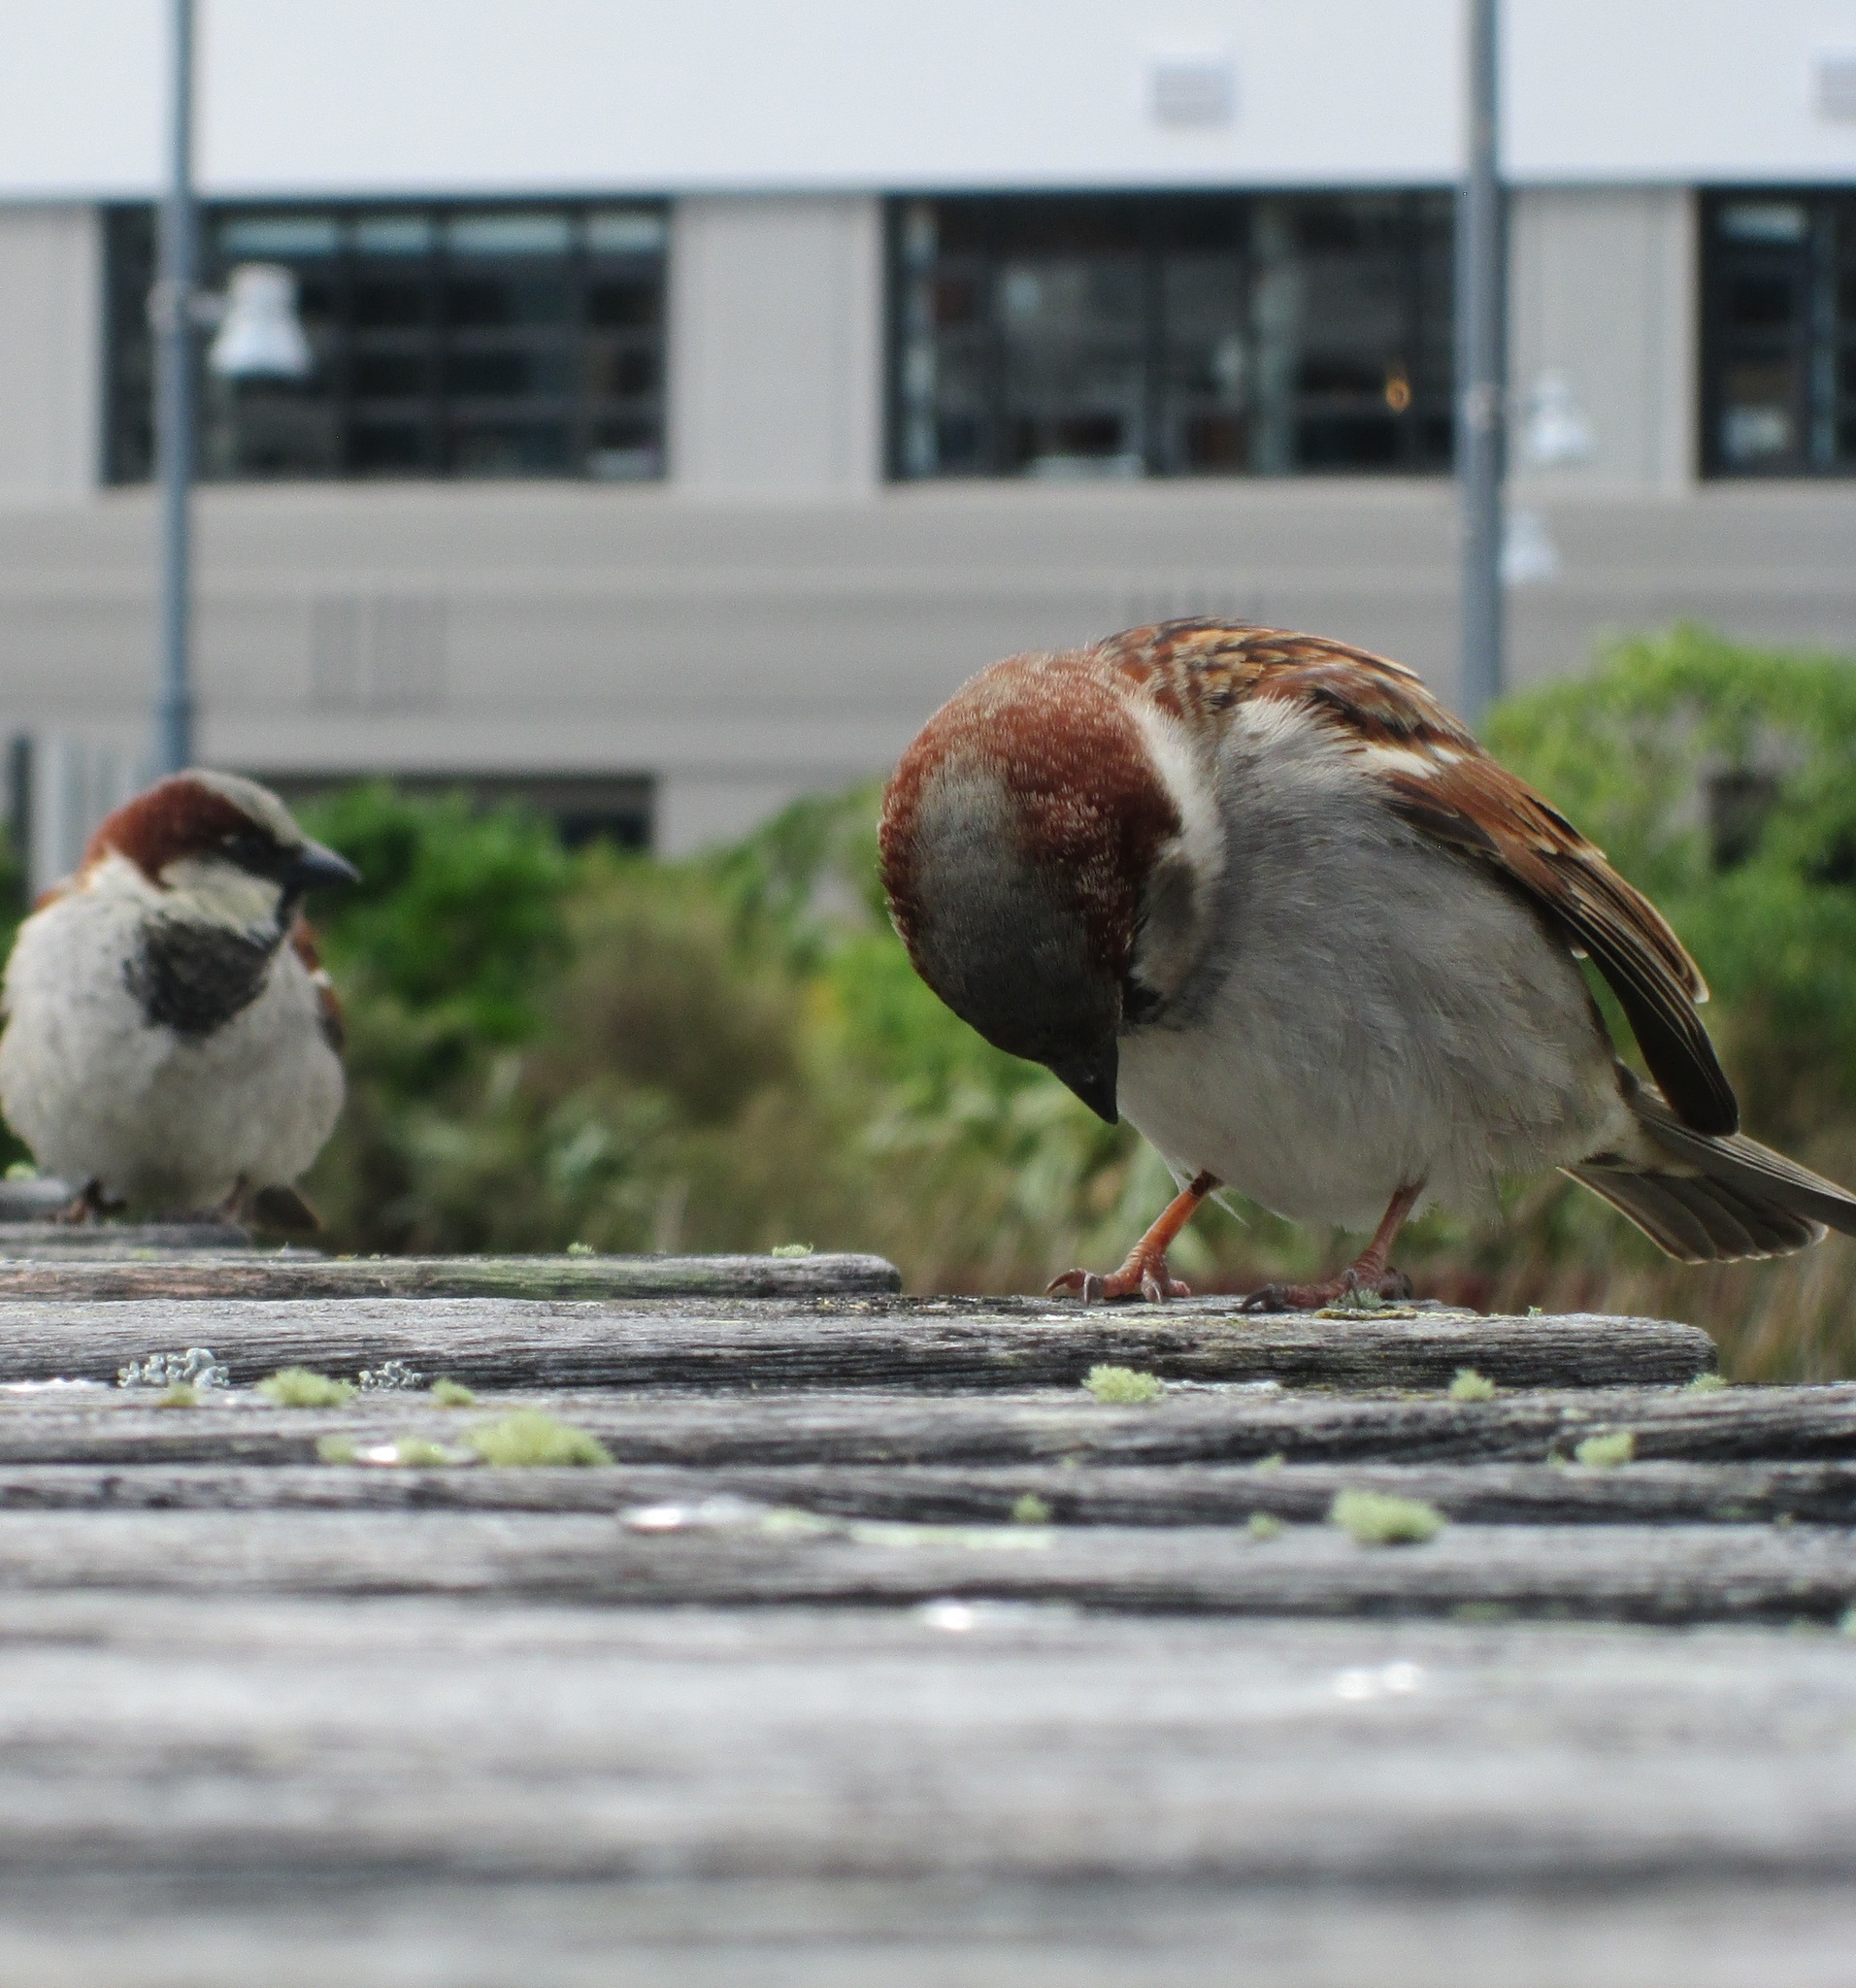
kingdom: Animalia
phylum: Chordata
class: Aves
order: Passeriformes
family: Passeridae
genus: Passer
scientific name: Passer domesticus
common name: House sparrow
